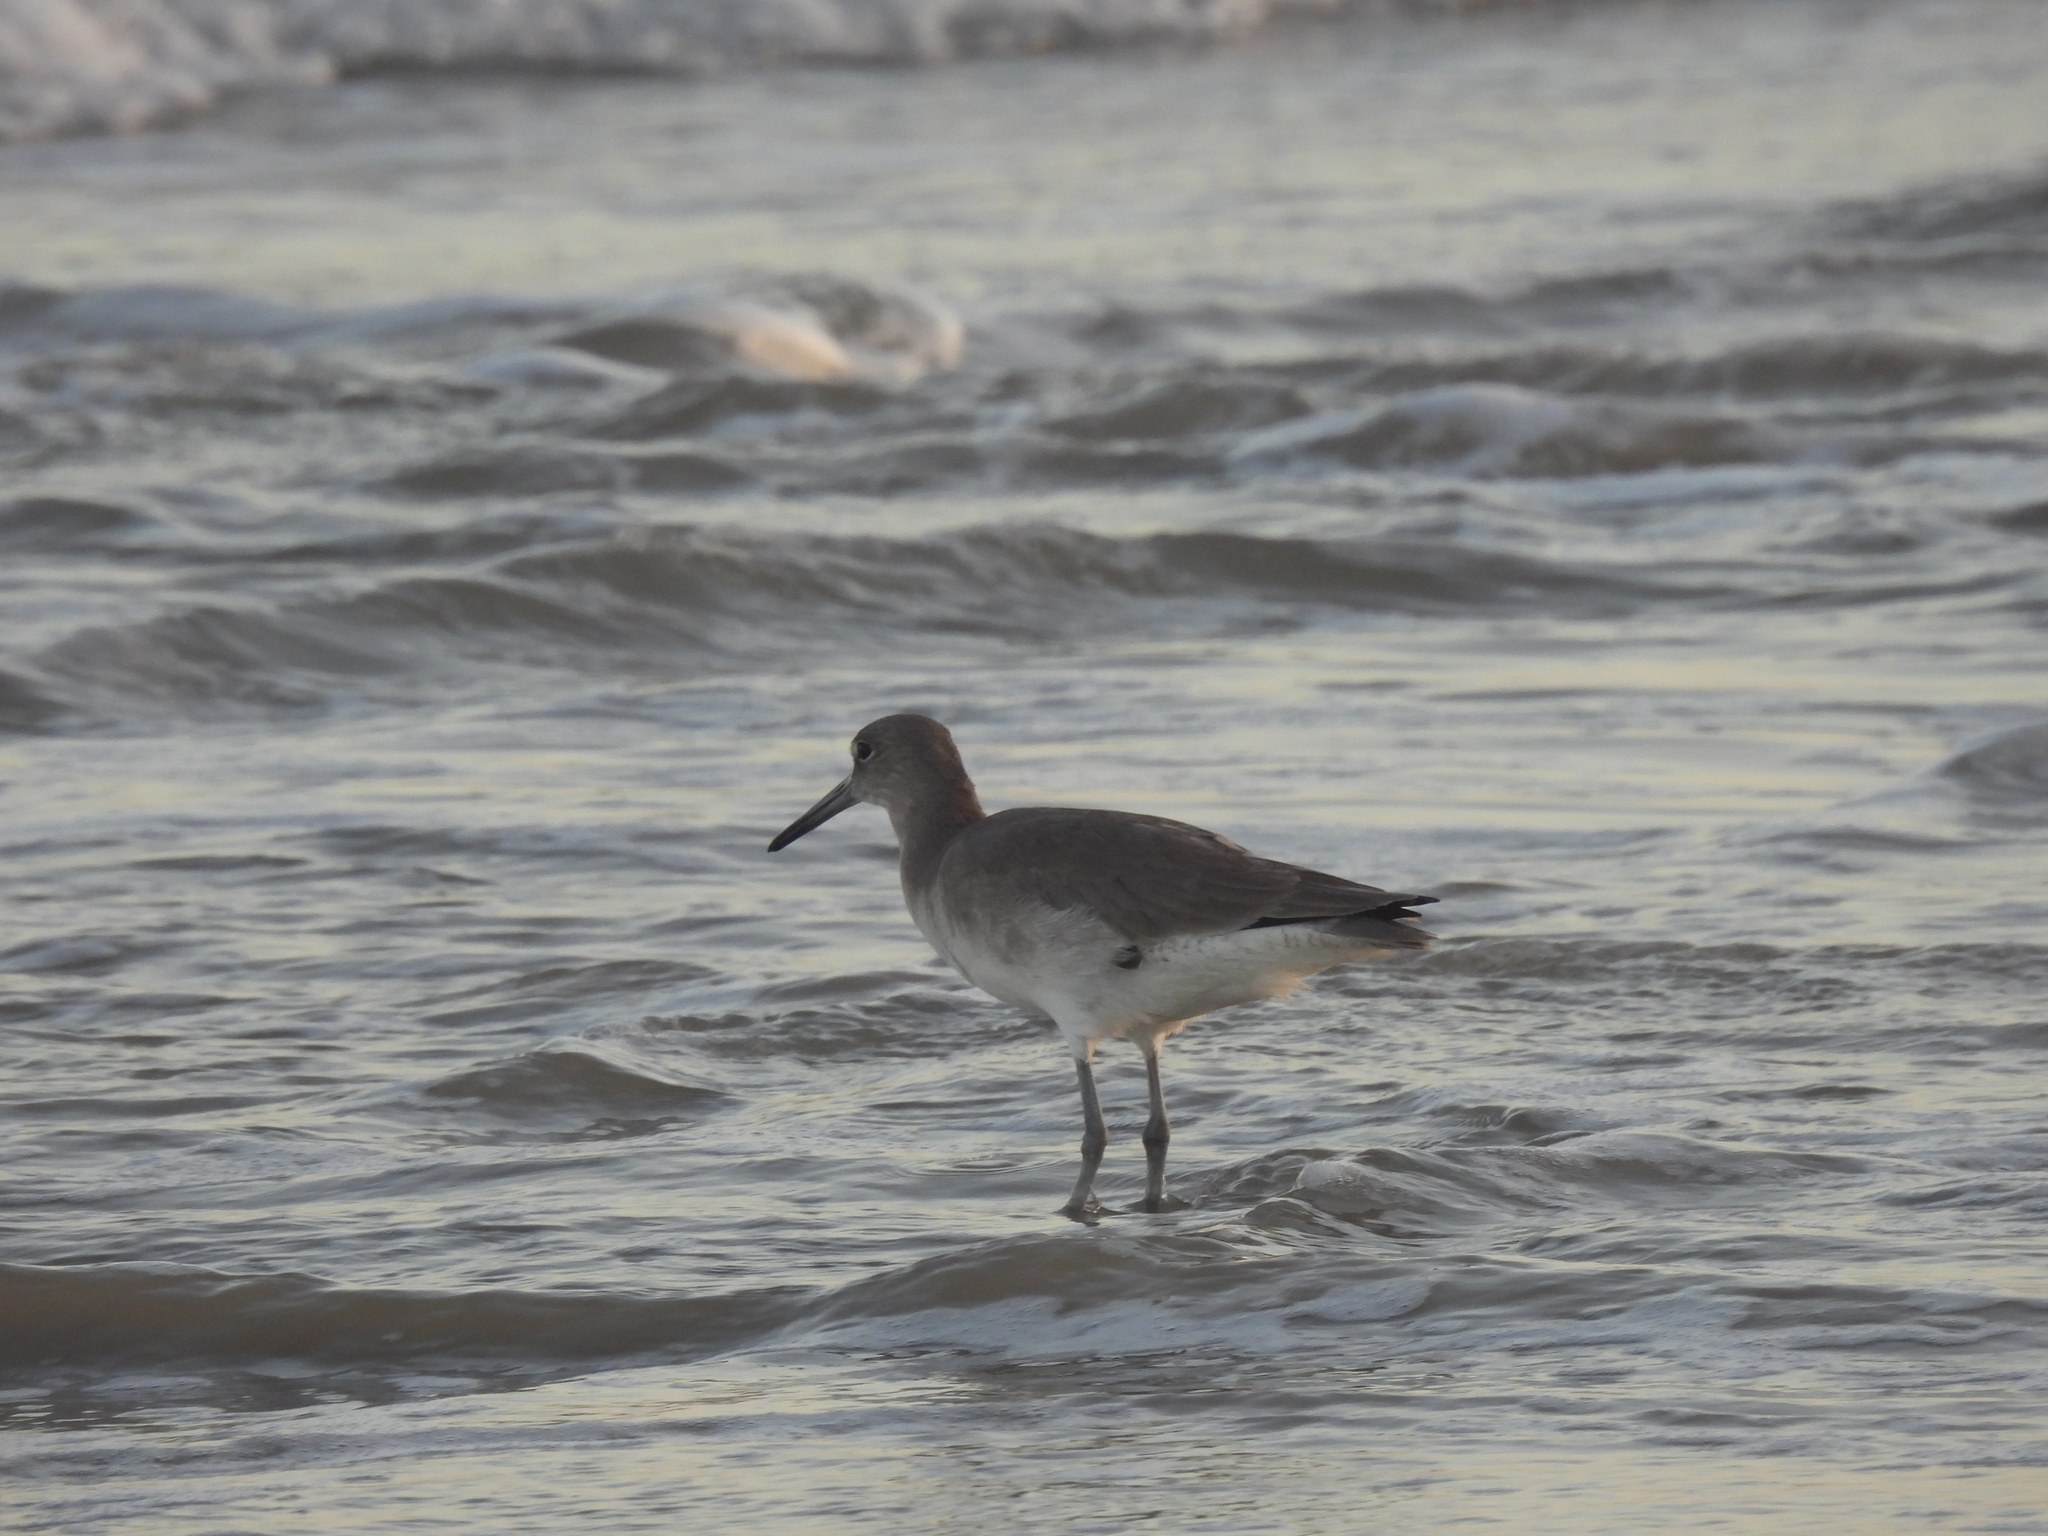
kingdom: Animalia
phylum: Chordata
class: Aves
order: Charadriiformes
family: Scolopacidae
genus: Tringa
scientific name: Tringa semipalmata
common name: Willet
